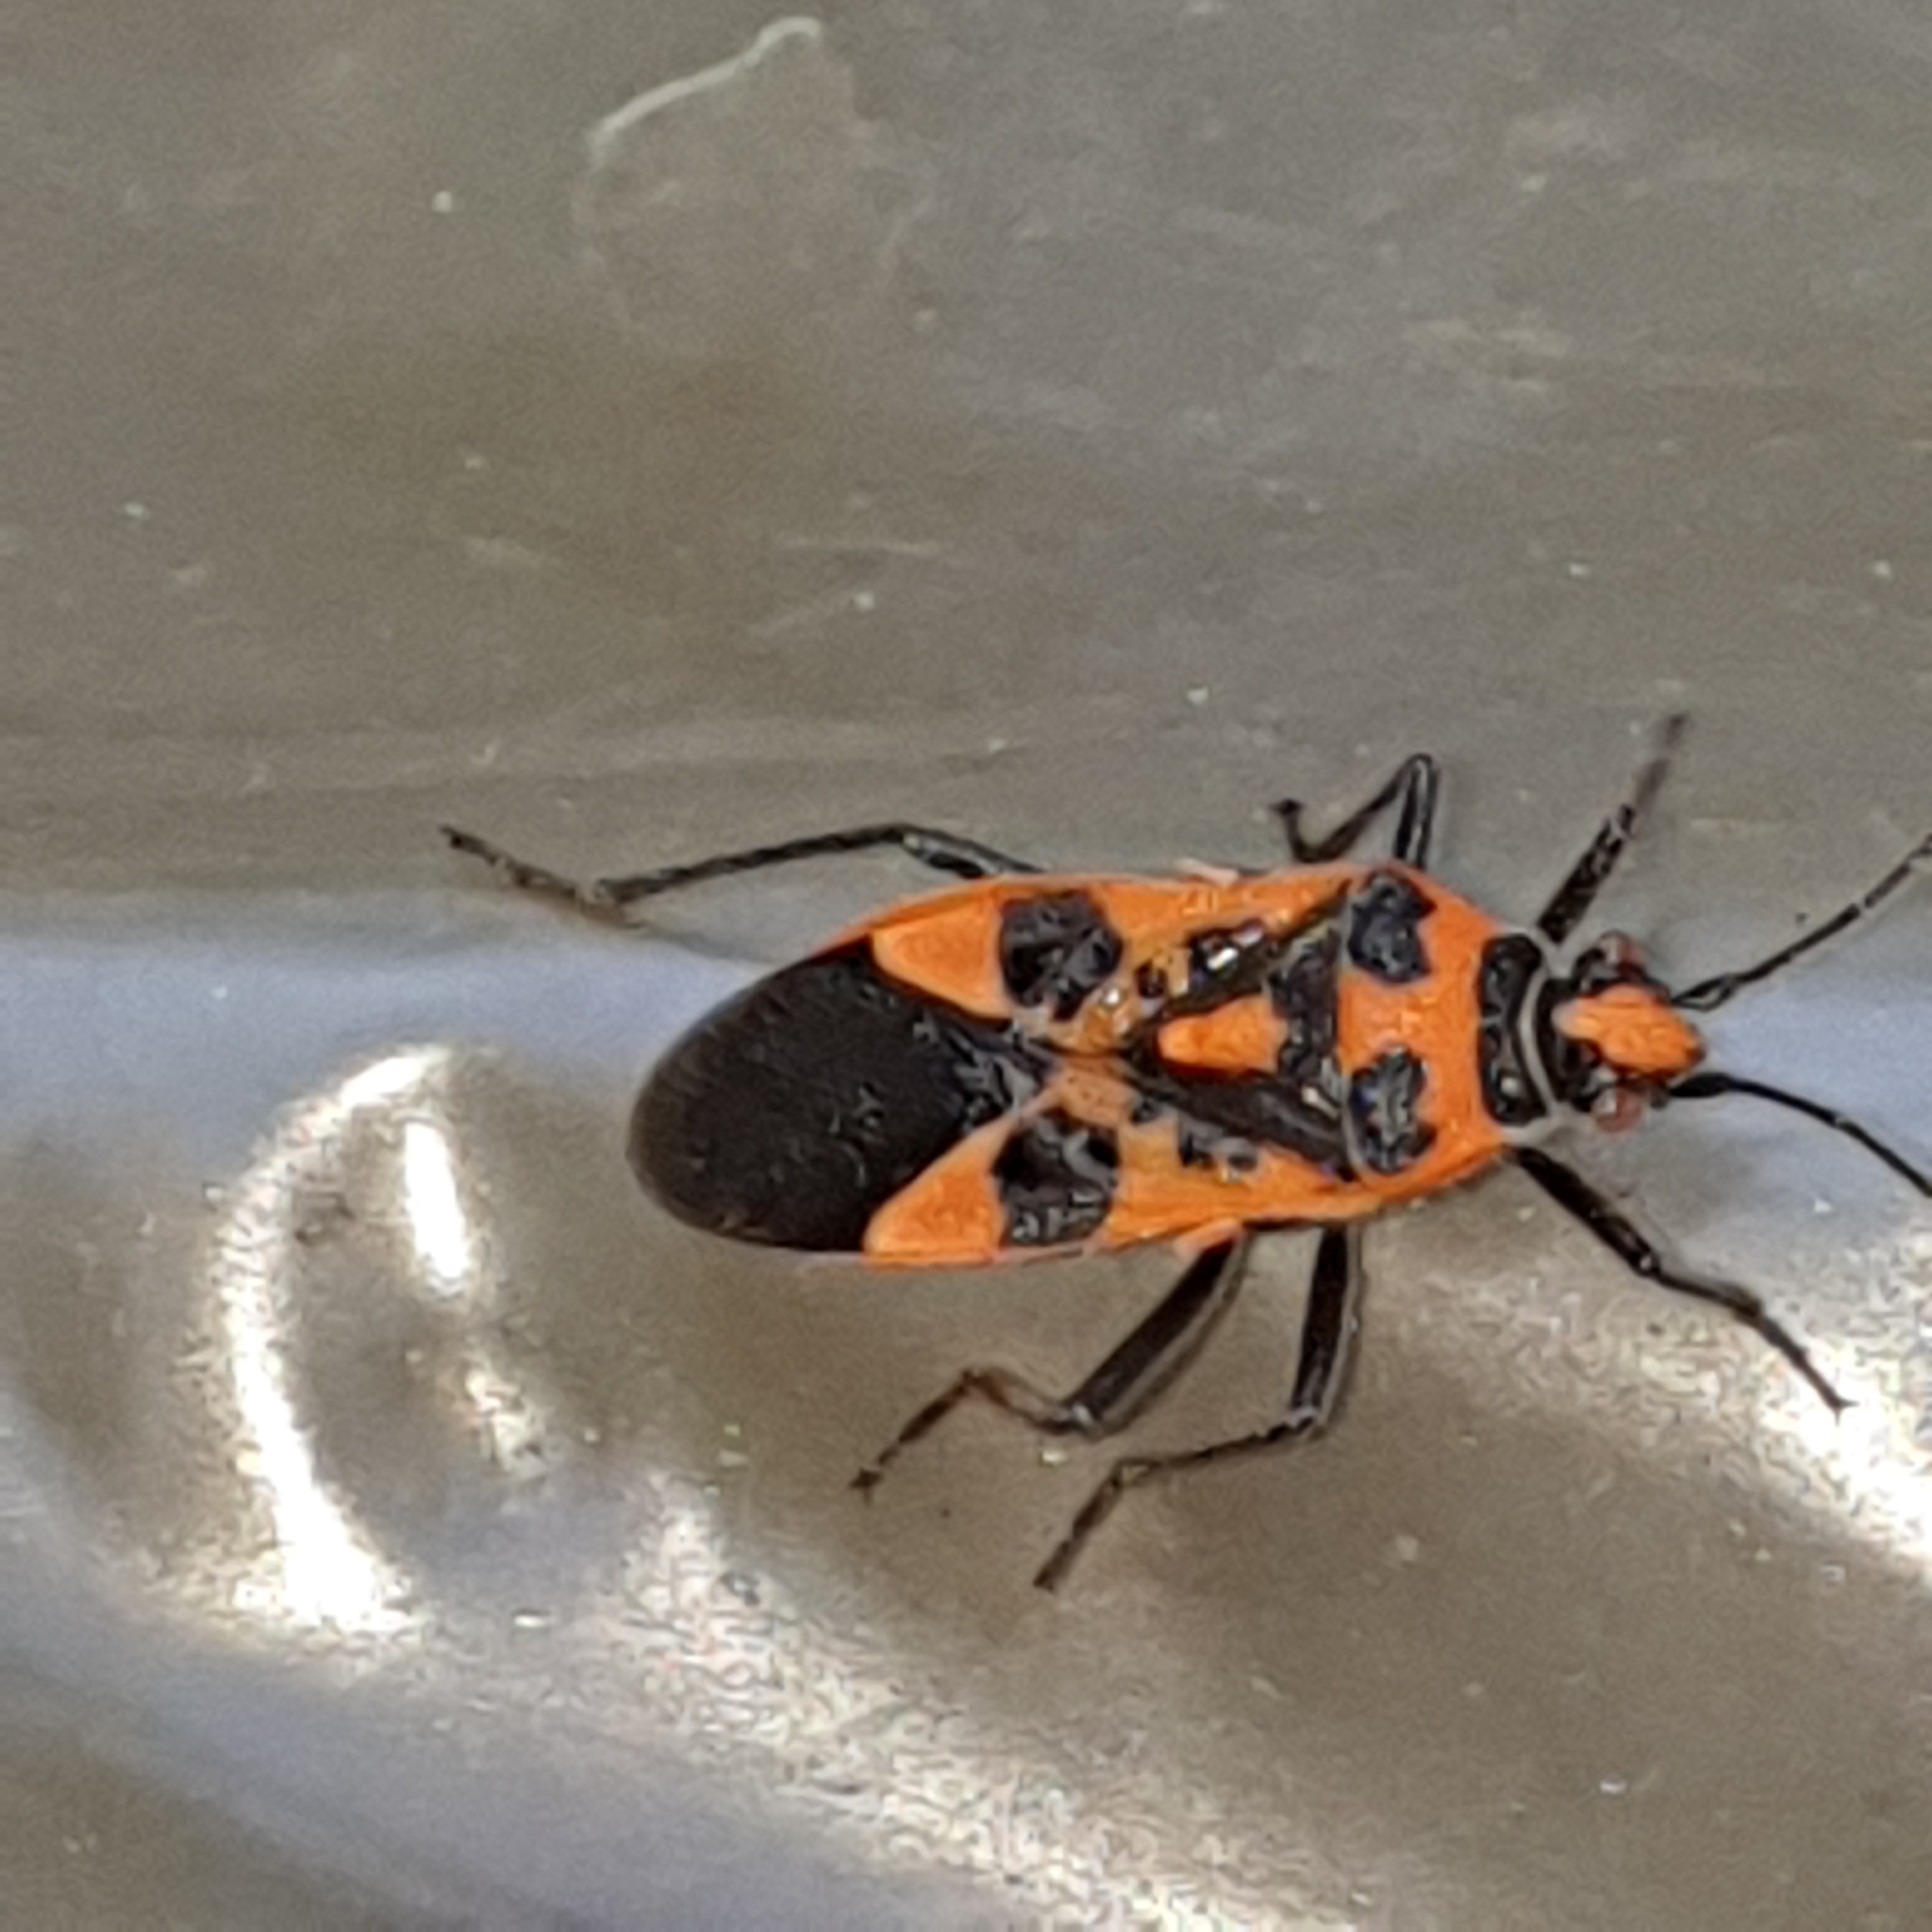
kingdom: Animalia
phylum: Arthropoda
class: Insecta
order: Hemiptera
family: Rhopalidae
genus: Corizus
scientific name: Corizus hyoscyami
